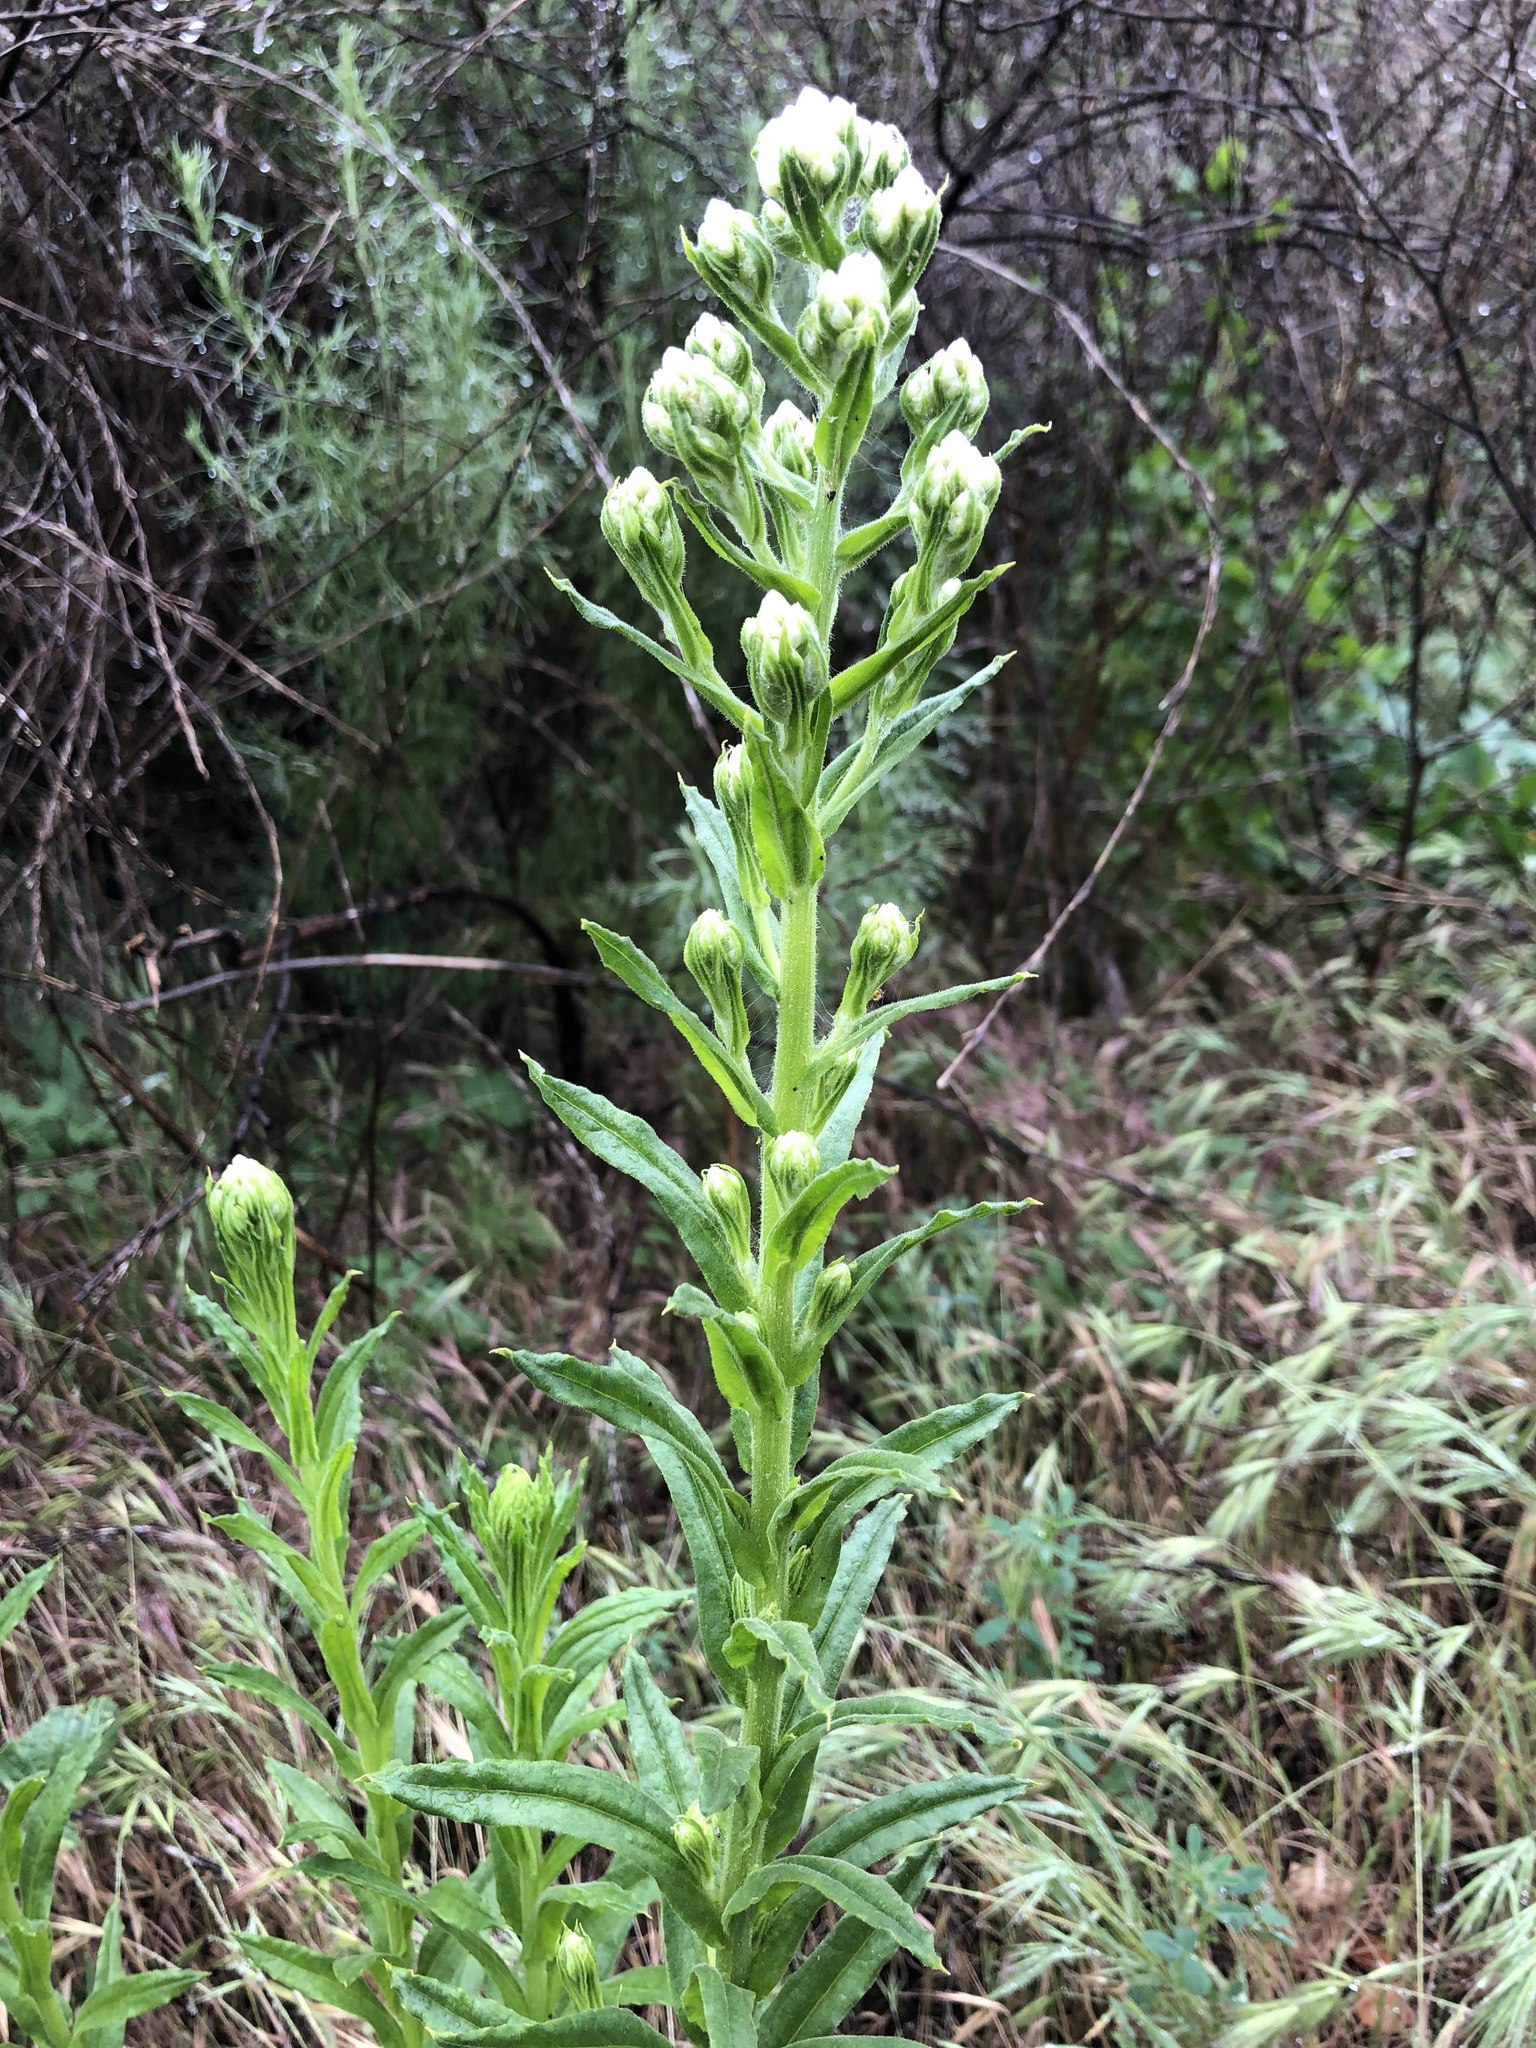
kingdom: Plantae
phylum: Tracheophyta
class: Magnoliopsida
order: Asterales
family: Asteraceae
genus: Pseudognaphalium
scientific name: Pseudognaphalium californicum
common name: California rabbit-tobacco
